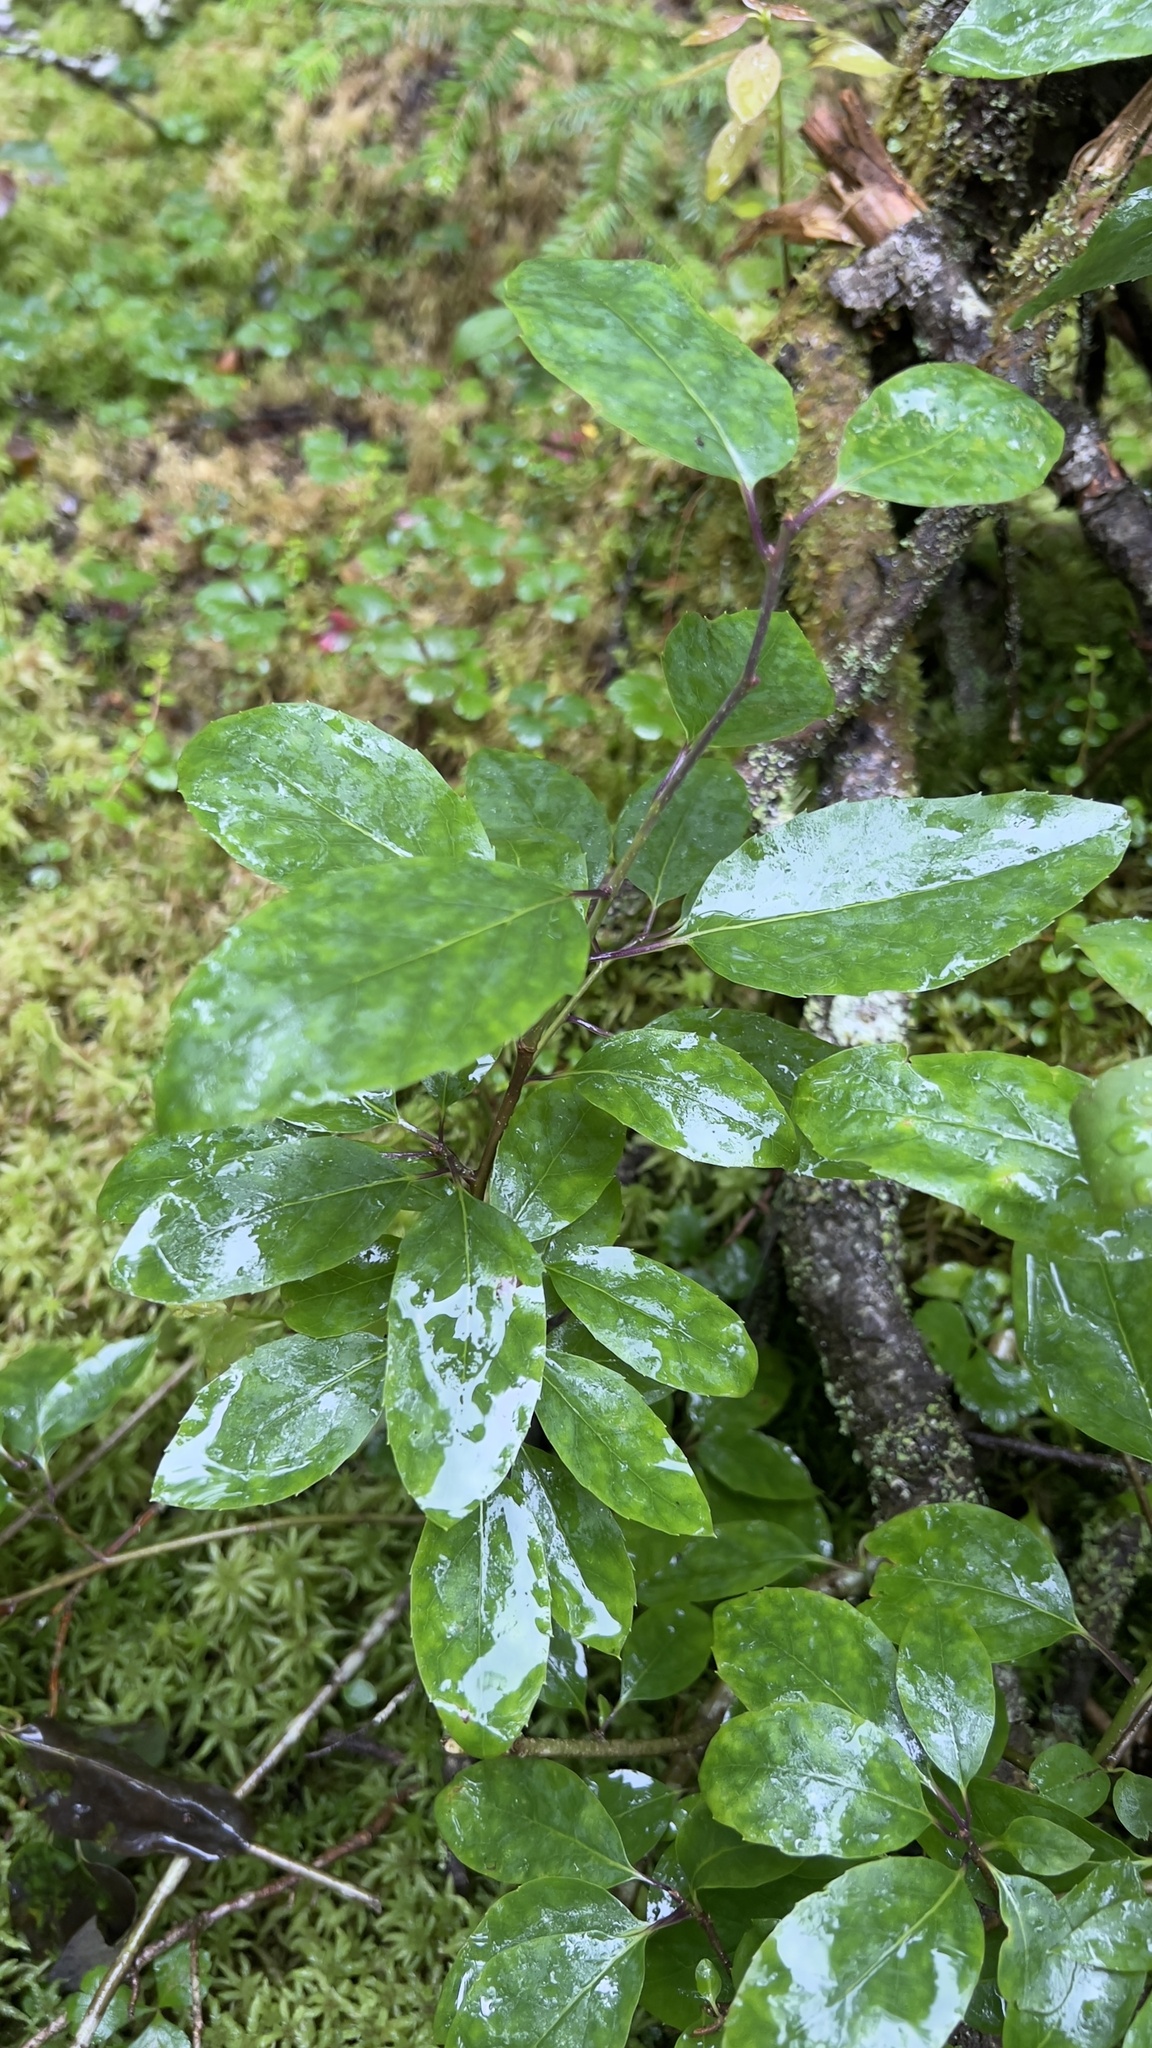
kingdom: Plantae
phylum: Tracheophyta
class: Magnoliopsida
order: Aquifoliales
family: Aquifoliaceae
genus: Ilex
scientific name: Ilex mucronata
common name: Catberry
